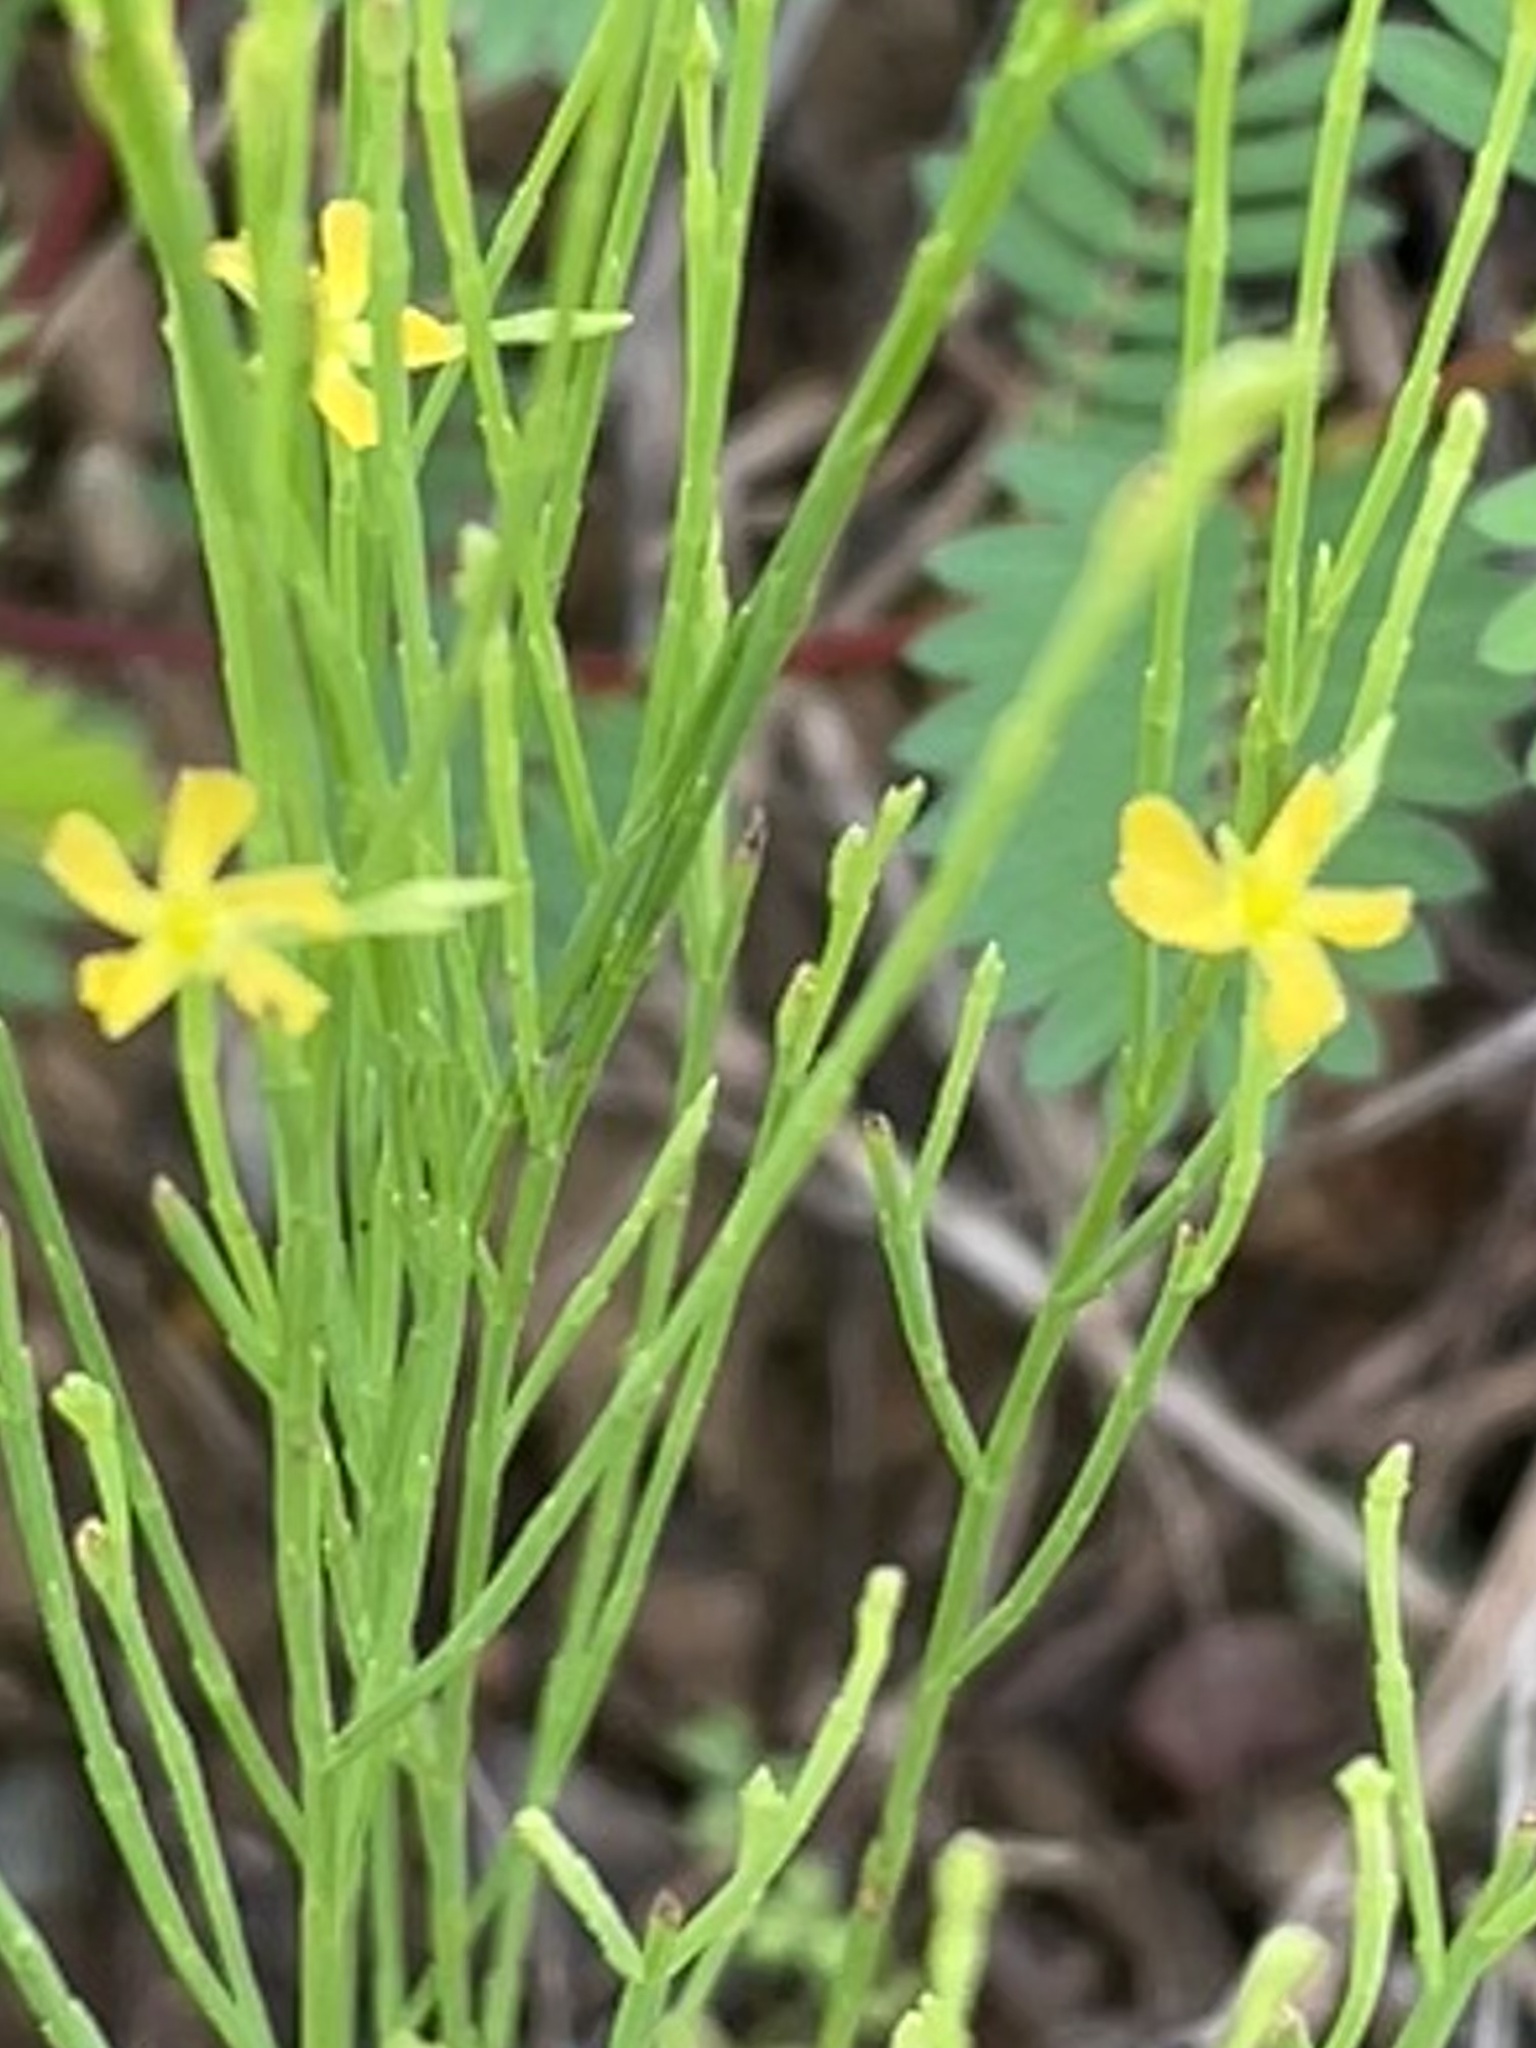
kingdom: Plantae
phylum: Tracheophyta
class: Magnoliopsida
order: Malpighiales
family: Hypericaceae
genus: Hypericum
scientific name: Hypericum gentianoides
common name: Gentian-leaved st. john's-wort
